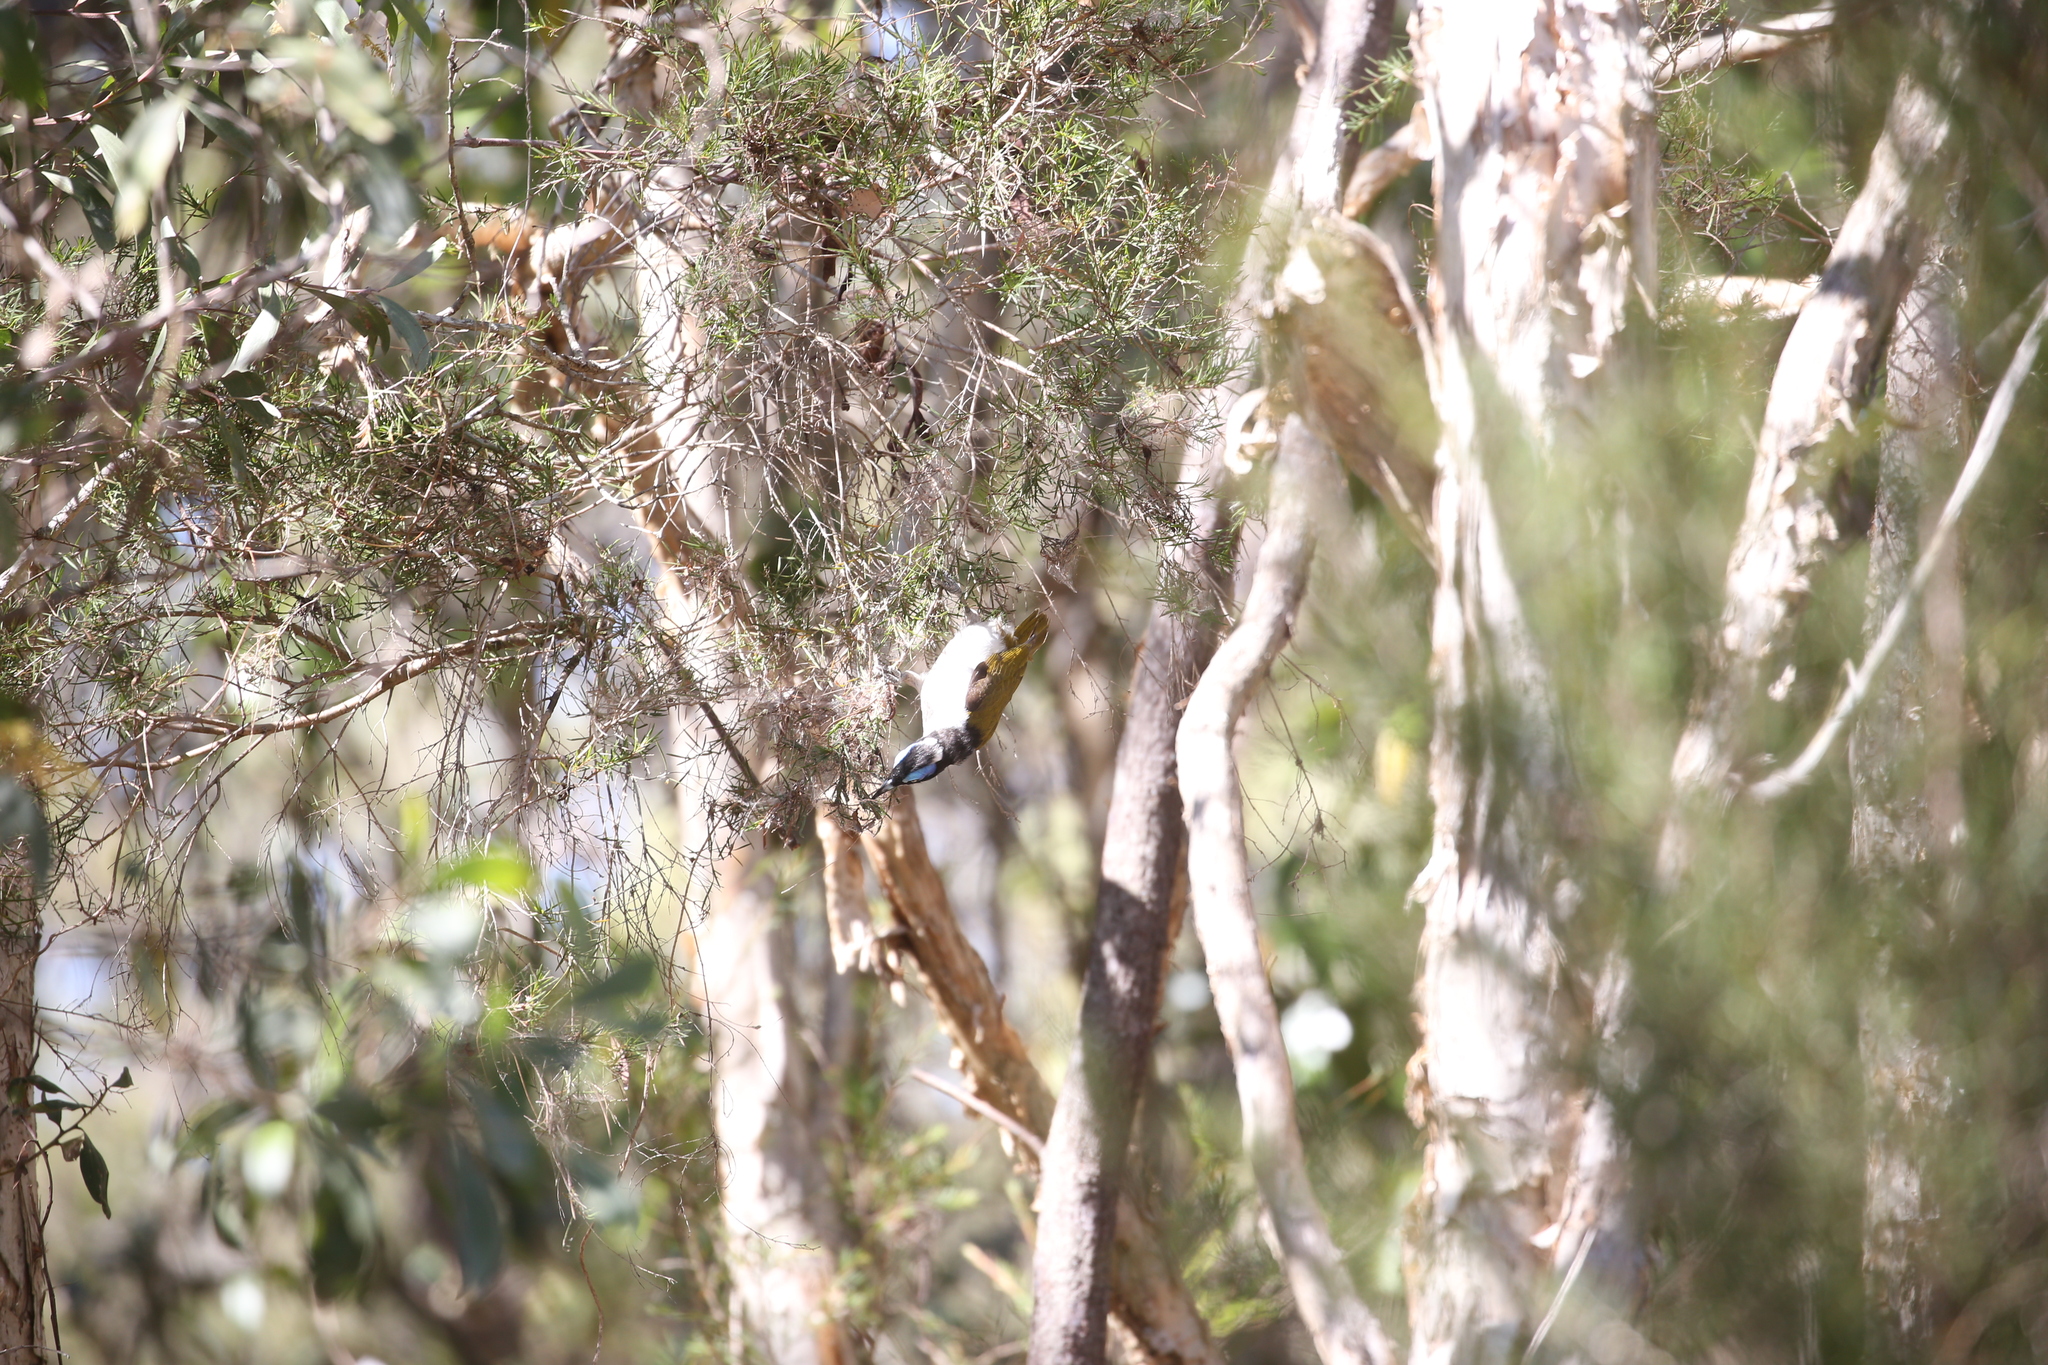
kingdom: Animalia
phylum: Chordata
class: Aves
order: Passeriformes
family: Meliphagidae
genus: Entomyzon
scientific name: Entomyzon cyanotis
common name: Blue-faced honeyeater
